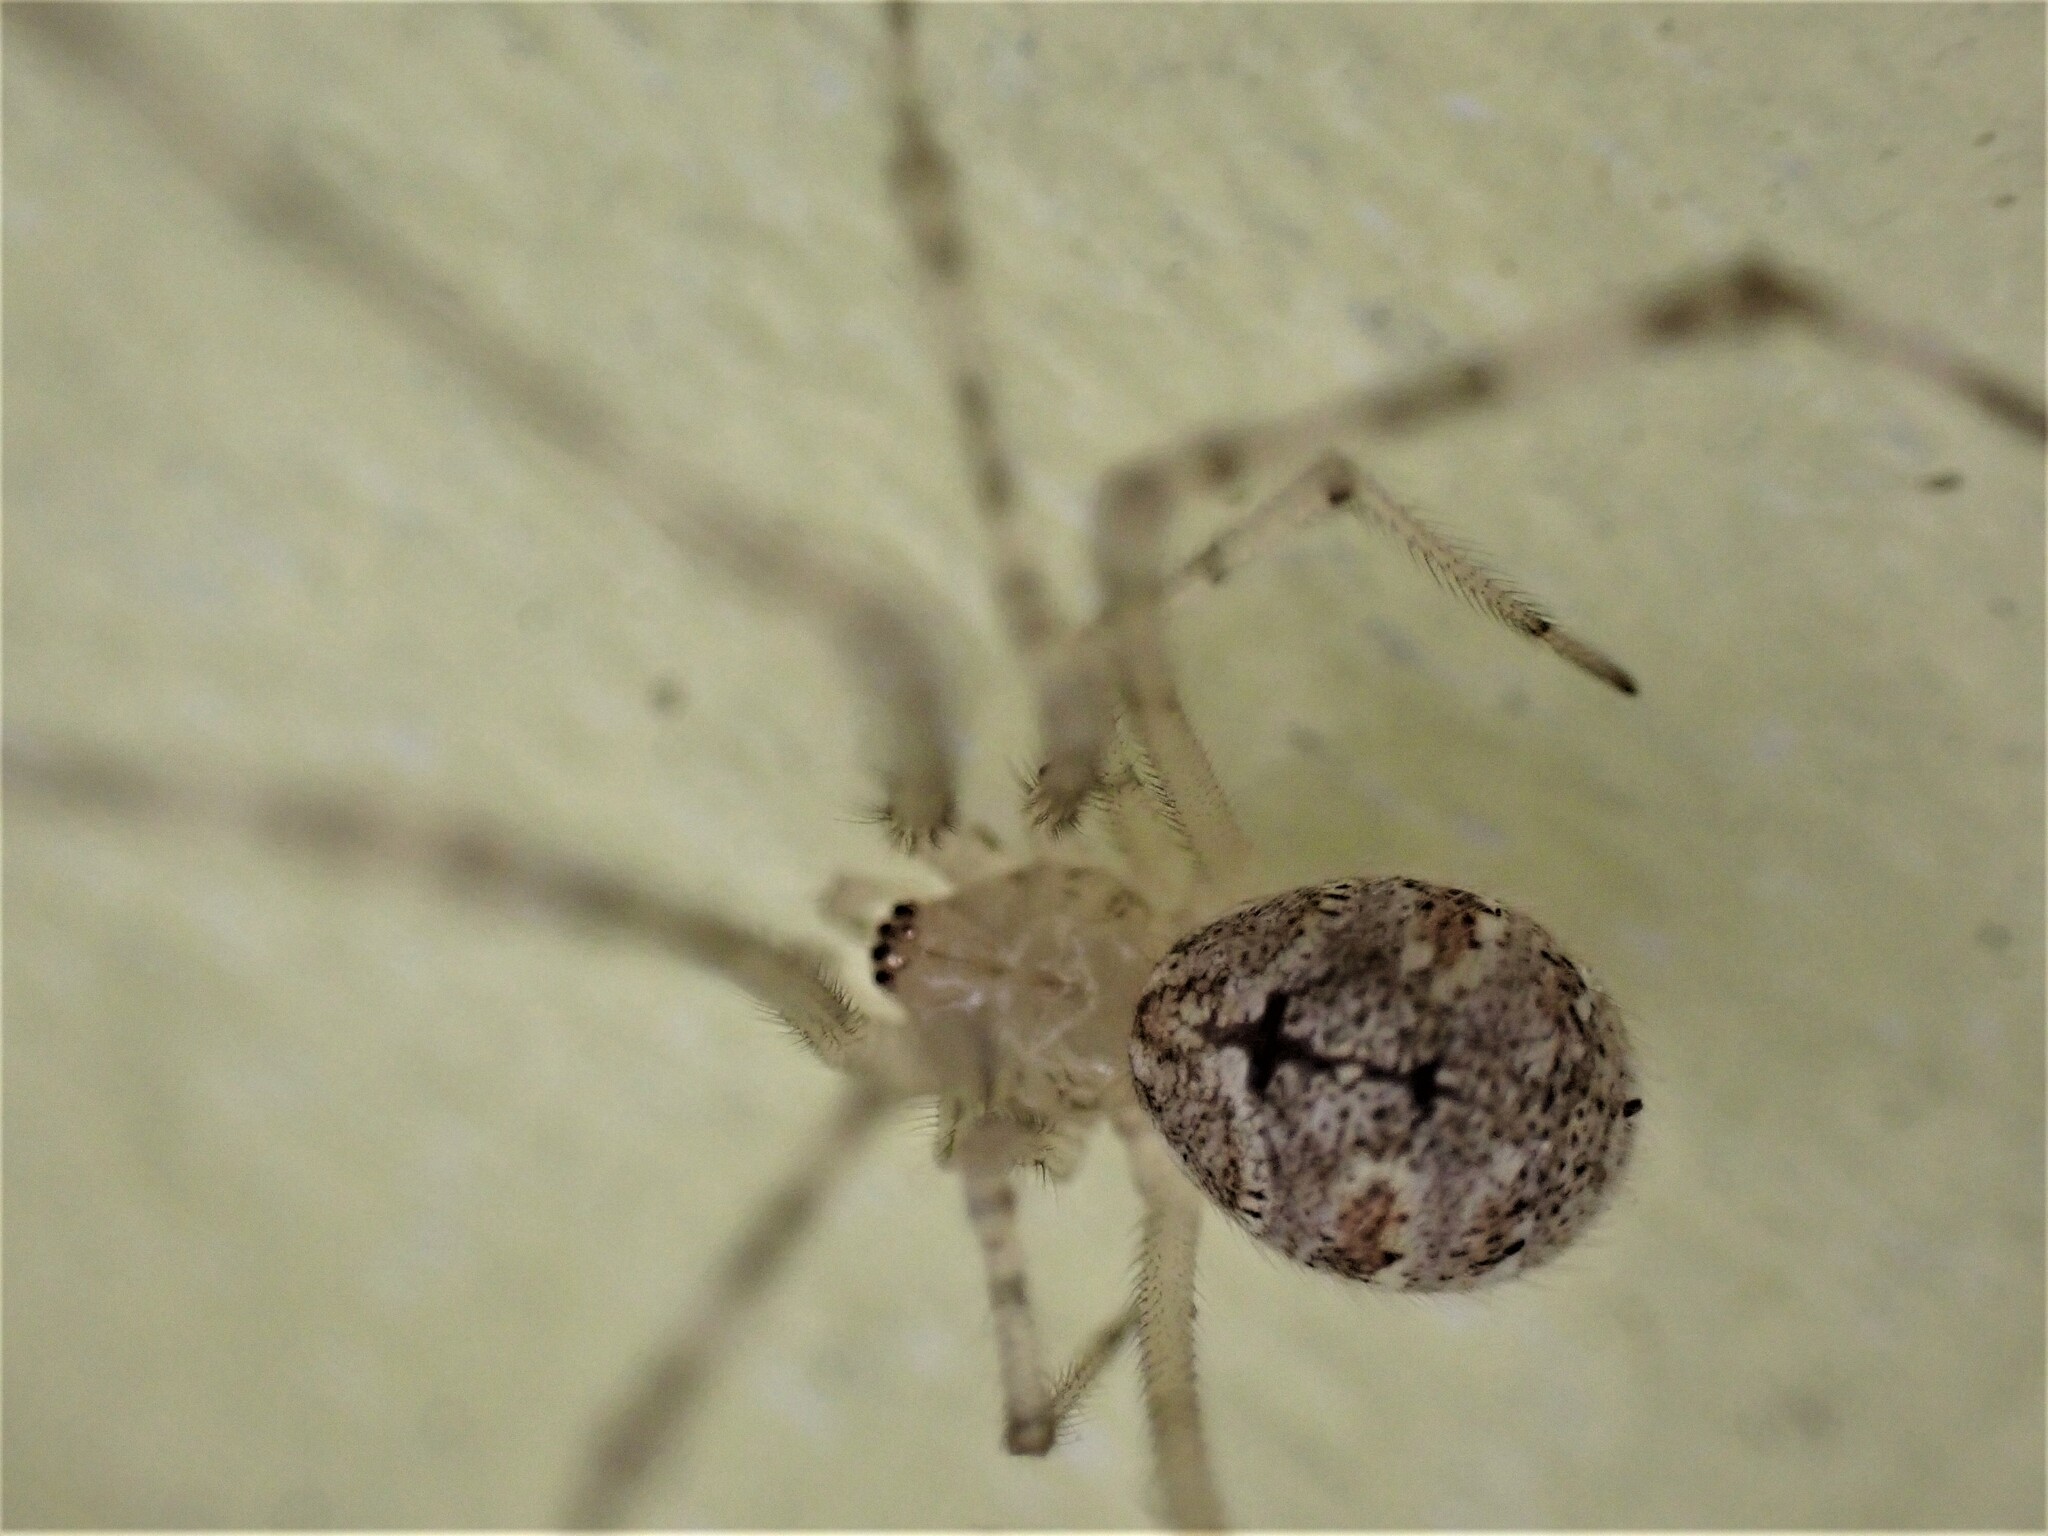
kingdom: Animalia
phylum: Arthropoda
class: Arachnida
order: Araneae
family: Theridiidae
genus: Cryptachaea
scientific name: Cryptachaea gigantipes
